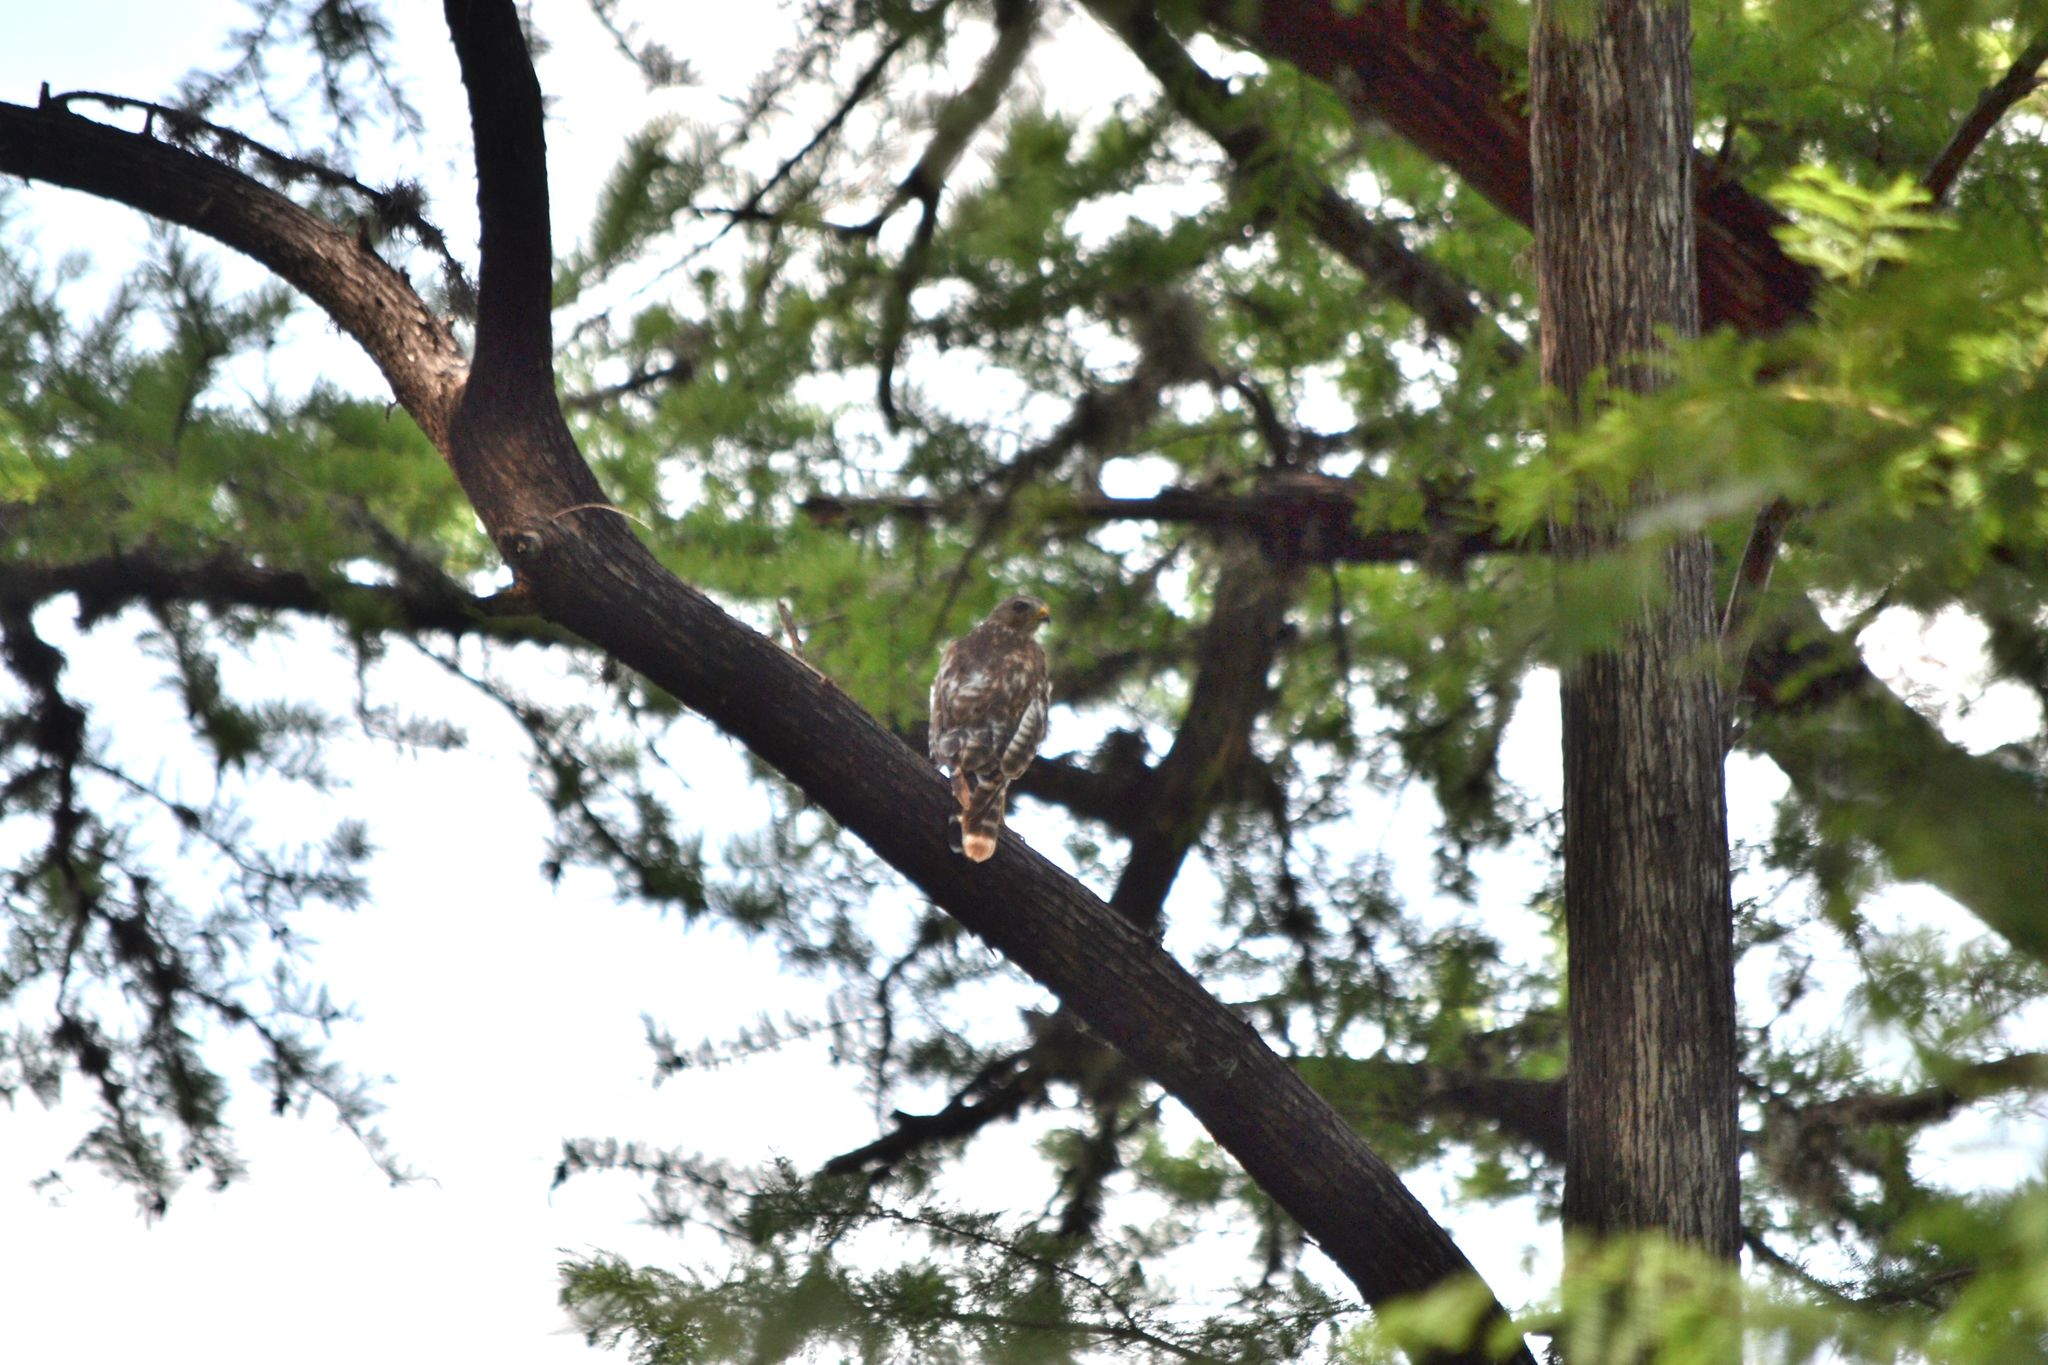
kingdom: Animalia
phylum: Chordata
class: Aves
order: Accipitriformes
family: Accipitridae
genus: Buteo
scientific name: Buteo lineatus
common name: Red-shouldered hawk
